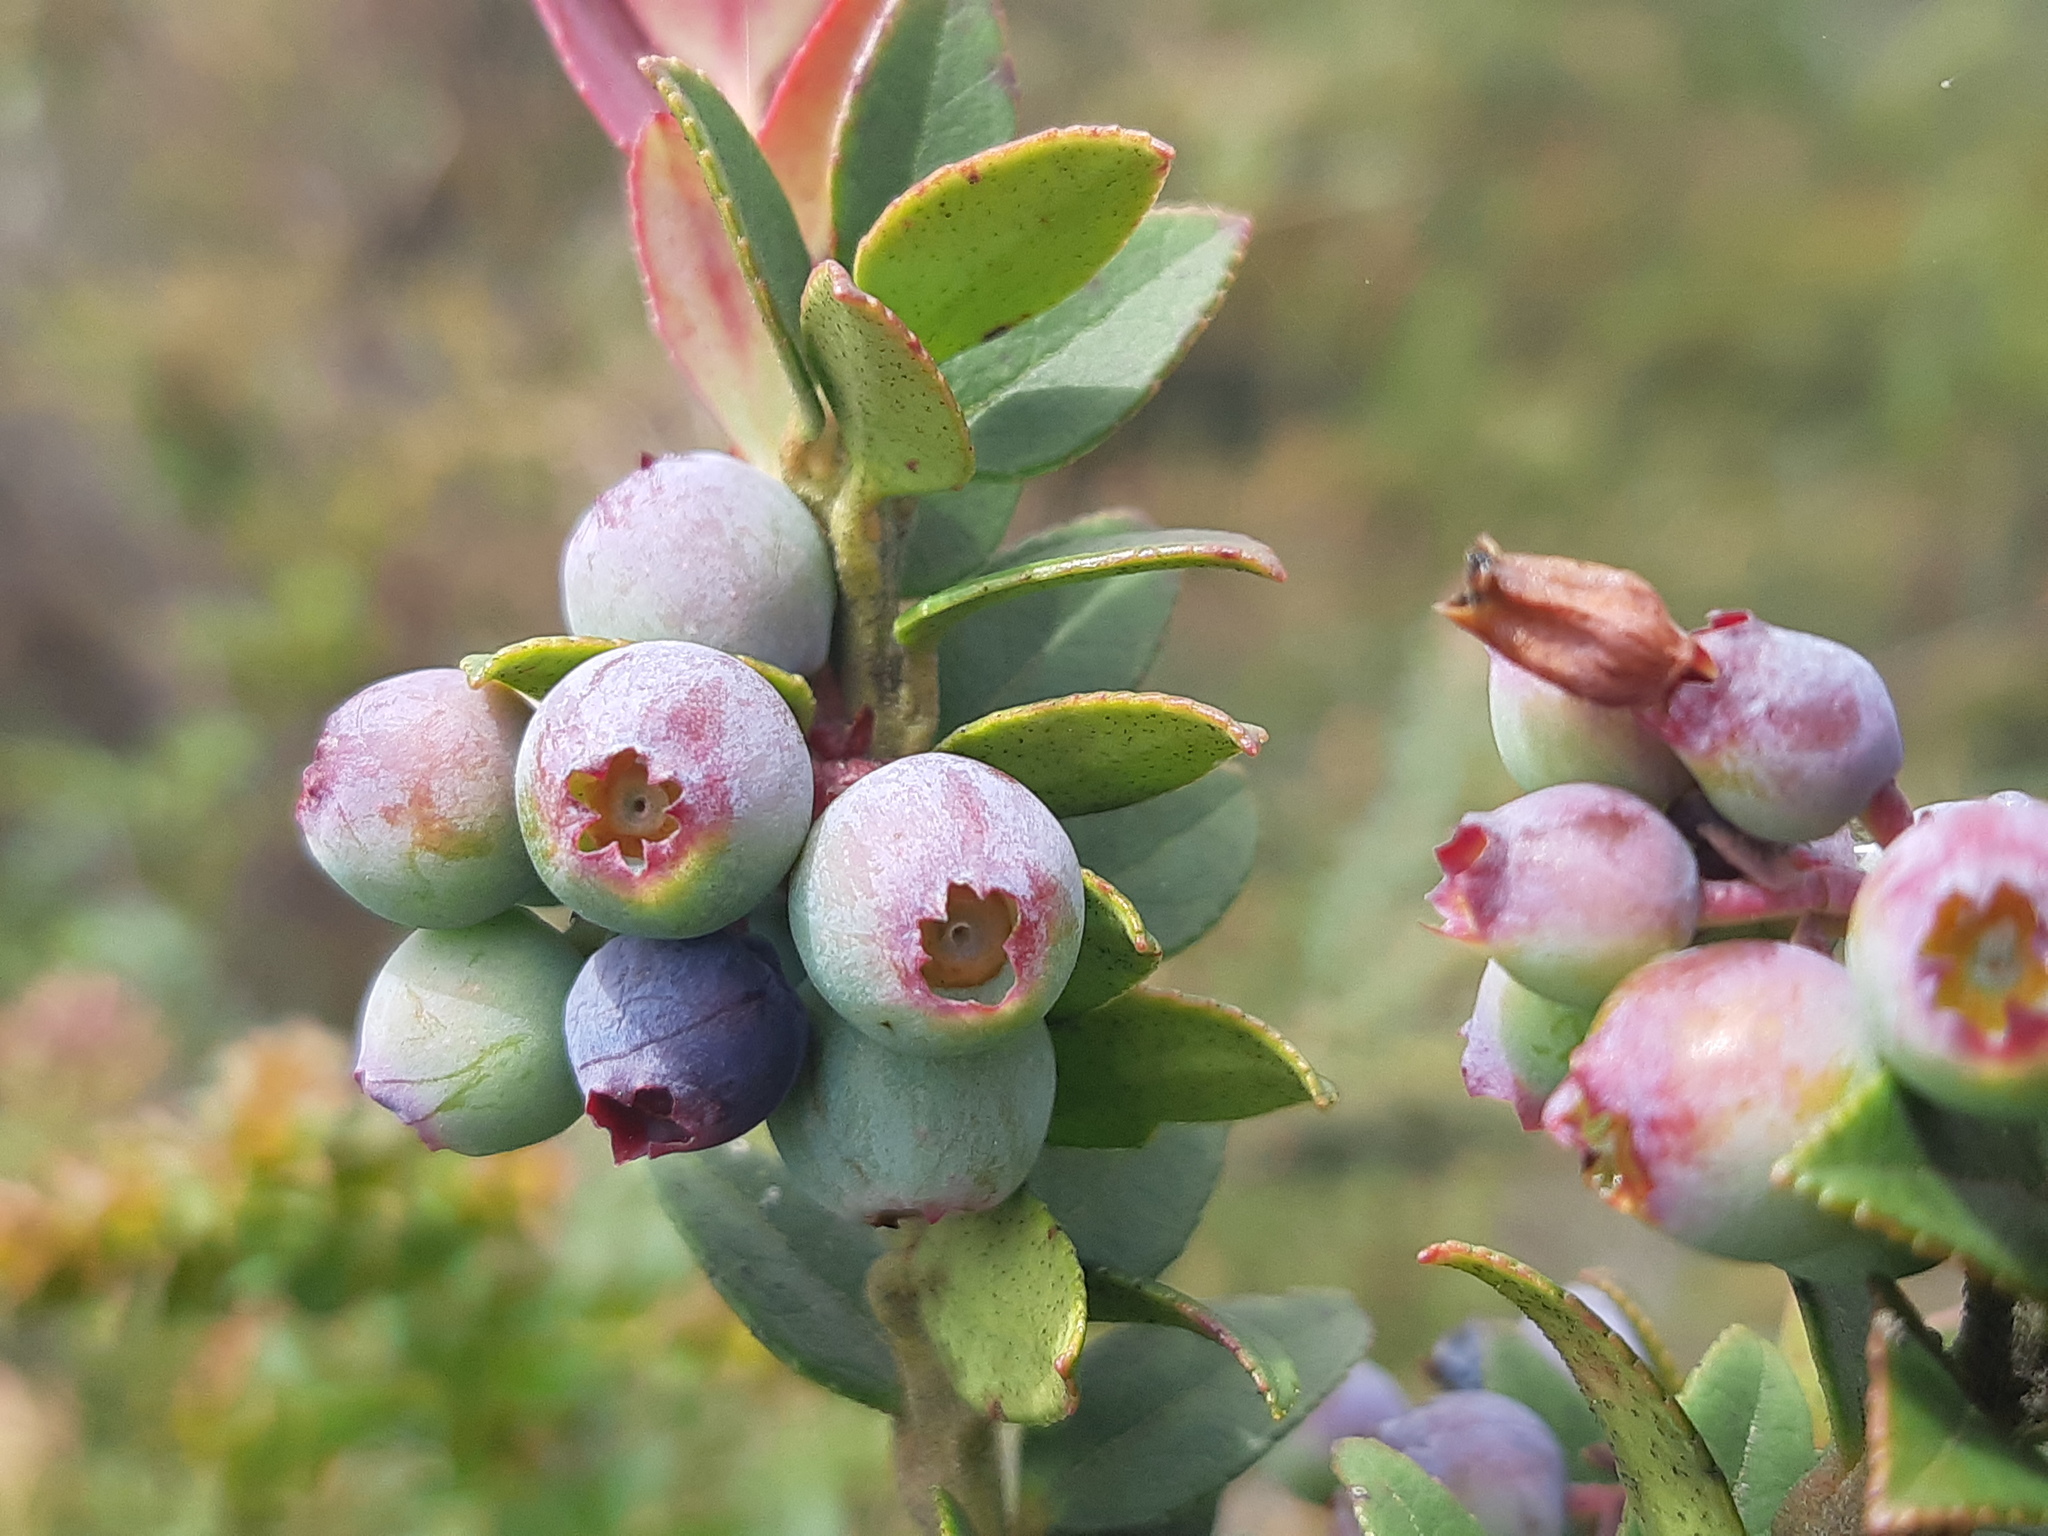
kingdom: Plantae
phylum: Tracheophyta
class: Magnoliopsida
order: Ericales
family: Ericaceae
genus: Vaccinium
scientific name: Vaccinium floribundum
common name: Colombian blueberry
